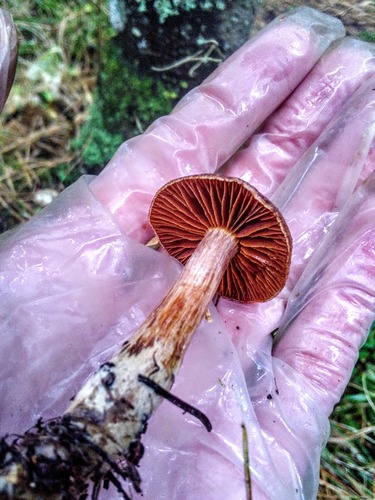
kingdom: Fungi
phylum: Basidiomycota
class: Agaricomycetes
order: Agaricales
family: Cortinariaceae
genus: Cortinarius
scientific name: Cortinarius semisanguineus
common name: Surprise webcap
